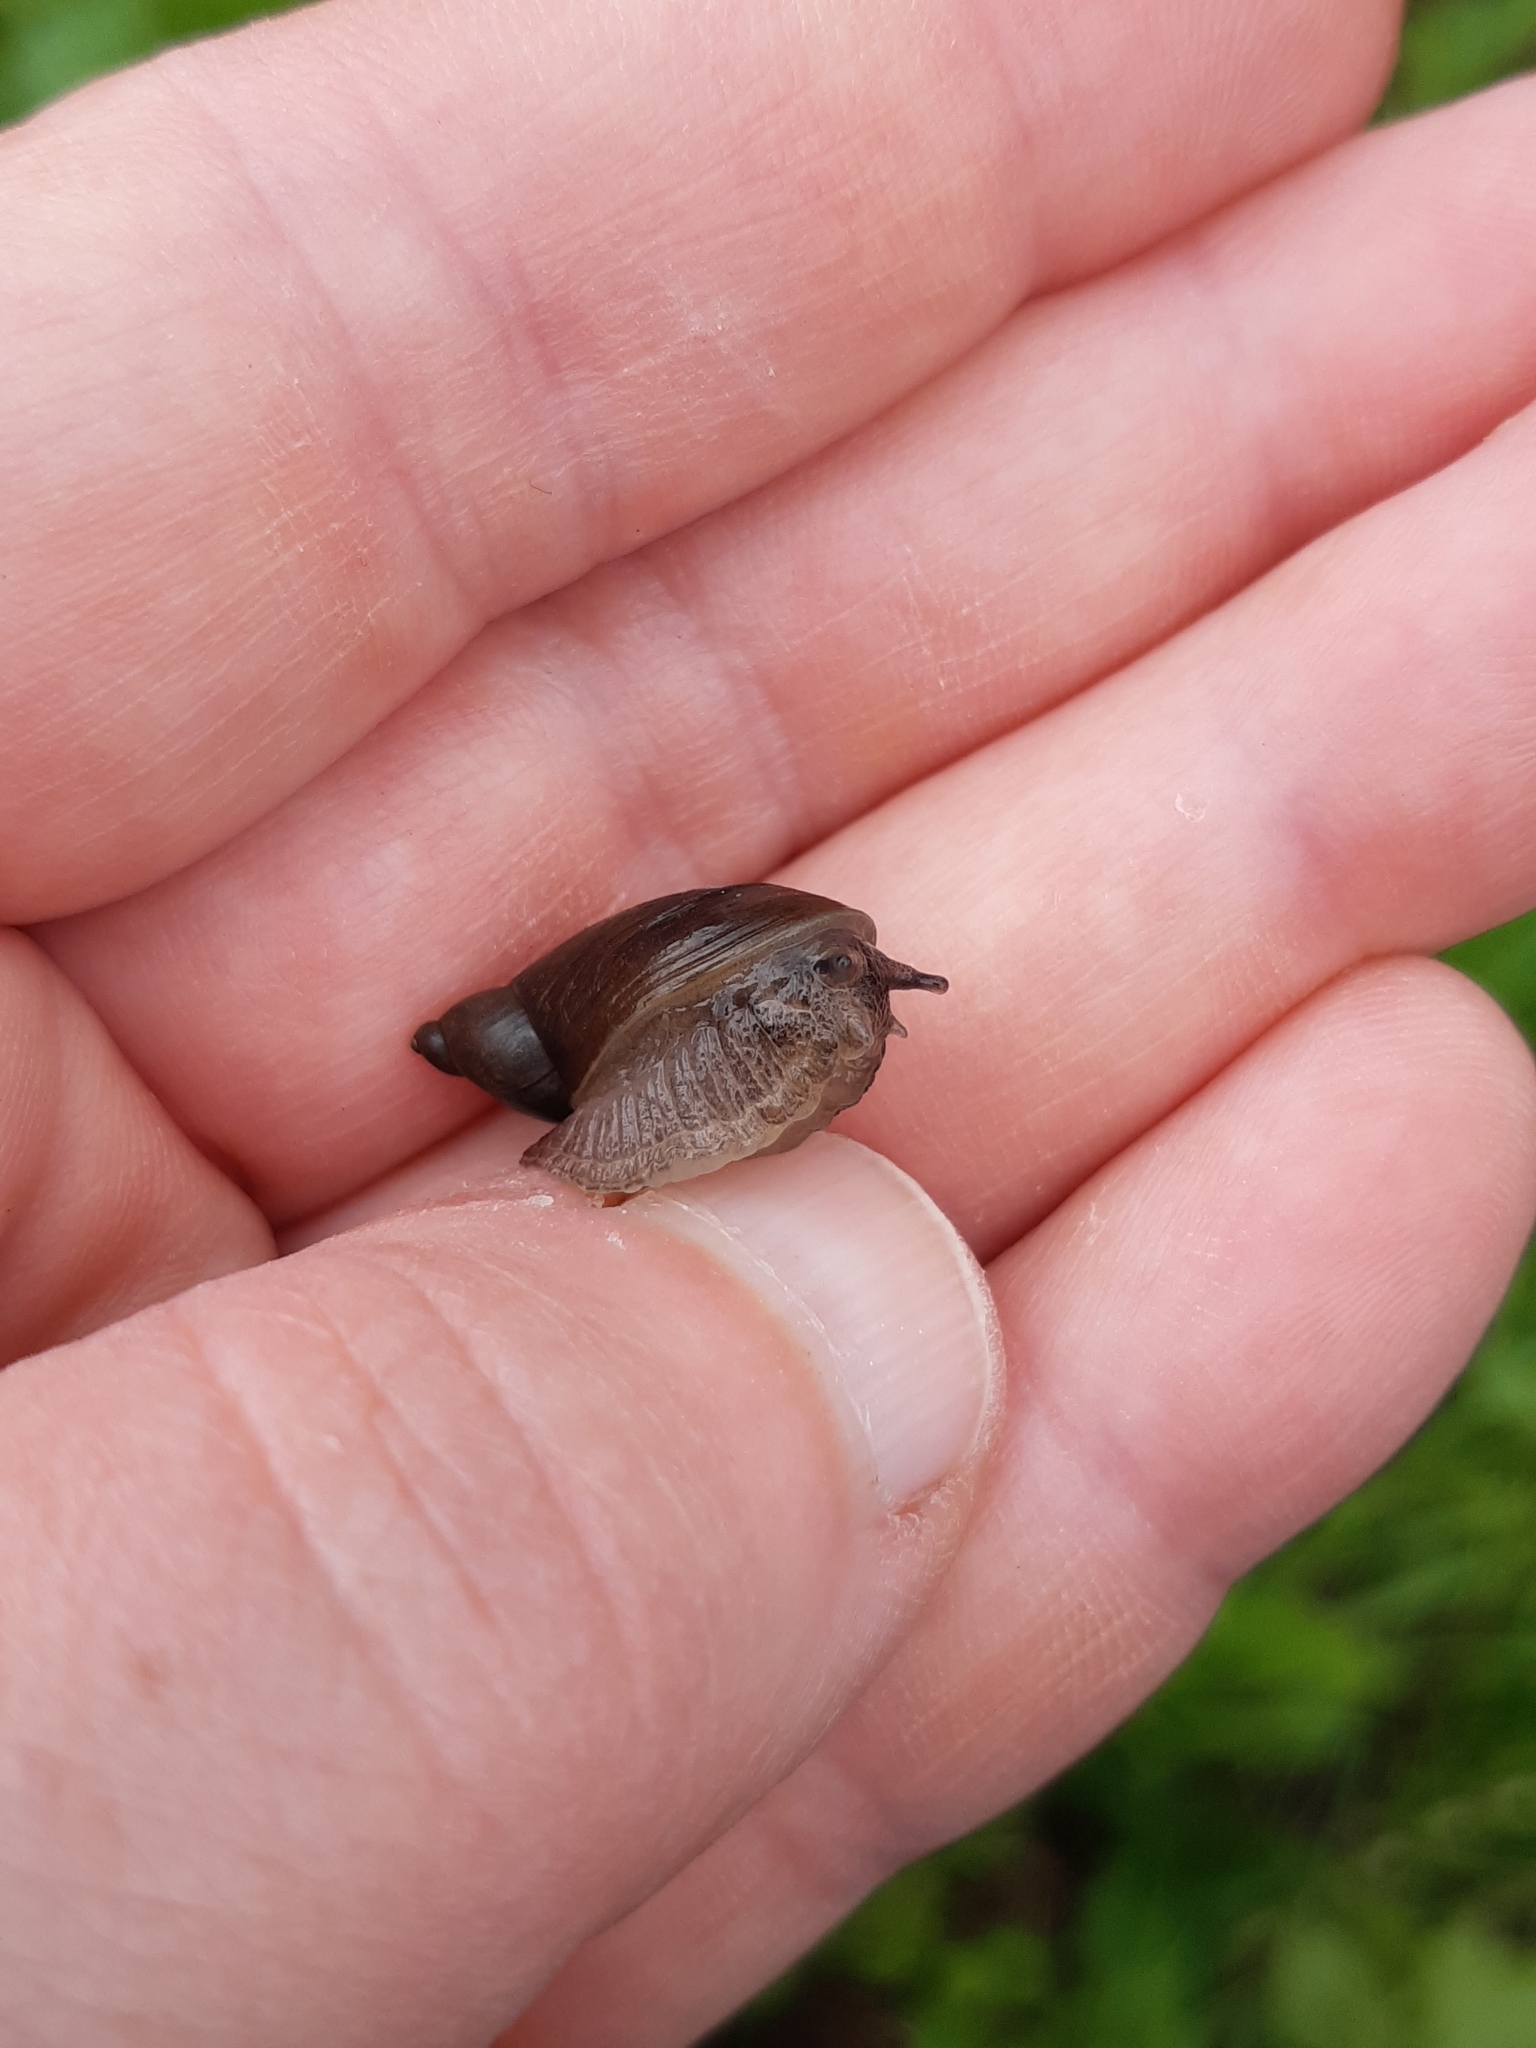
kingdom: Animalia
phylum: Mollusca
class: Gastropoda
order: Stylommatophora
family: Succineidae
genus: Succinea
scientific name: Succinea putris
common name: European ambersnail
